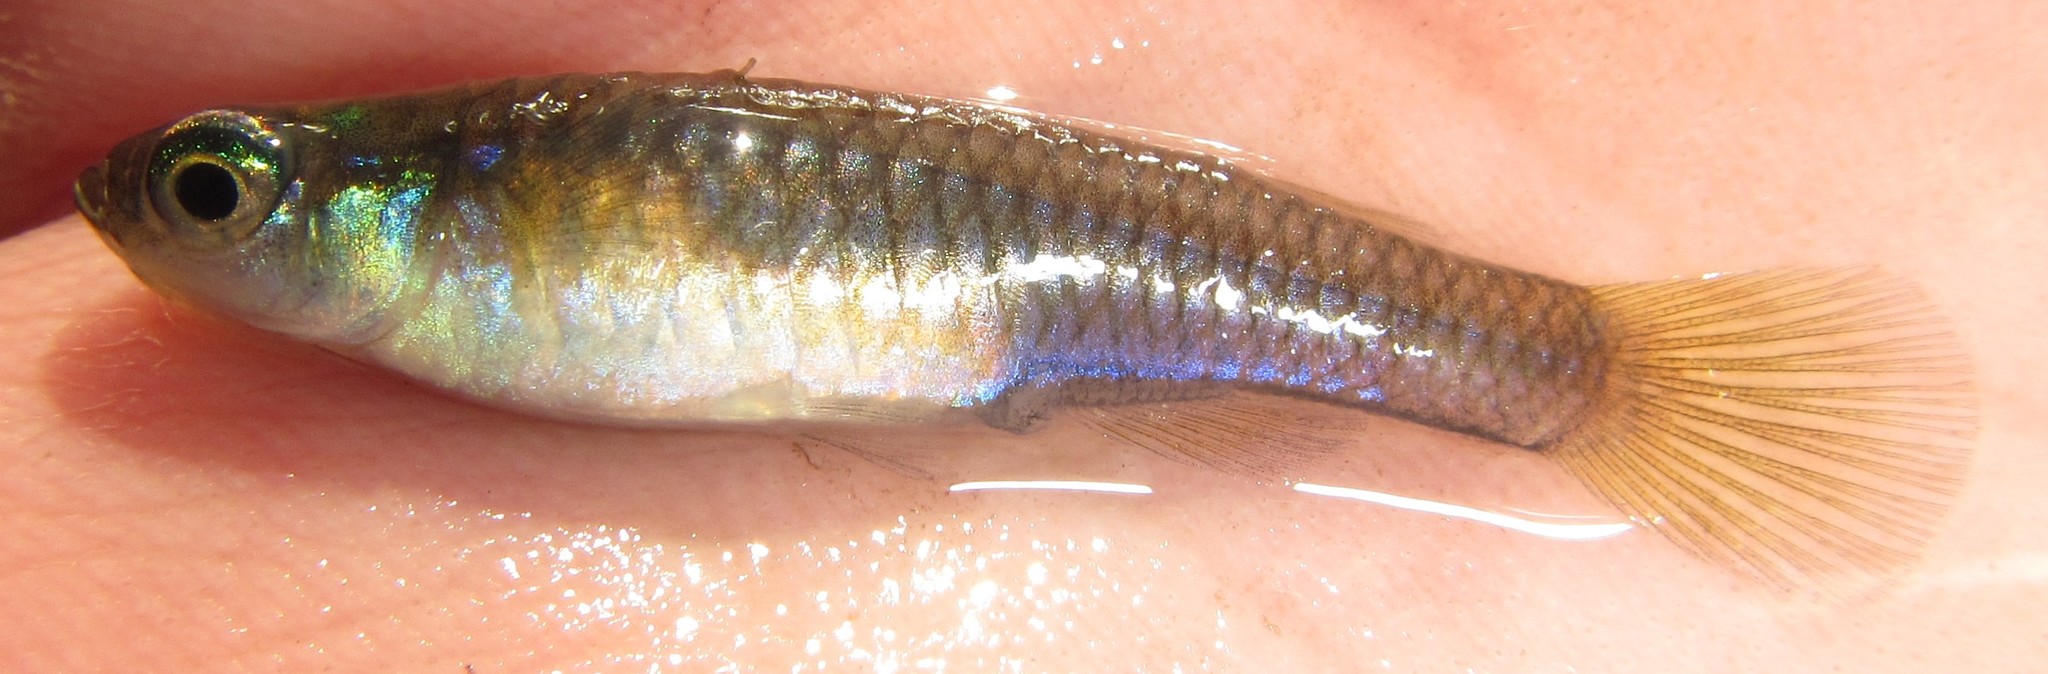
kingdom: Animalia
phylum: Chordata
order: Cyprinodontiformes
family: Poeciliidae
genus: Micropanchax
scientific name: Micropanchax johnstoni
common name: Johnston's topminnow
